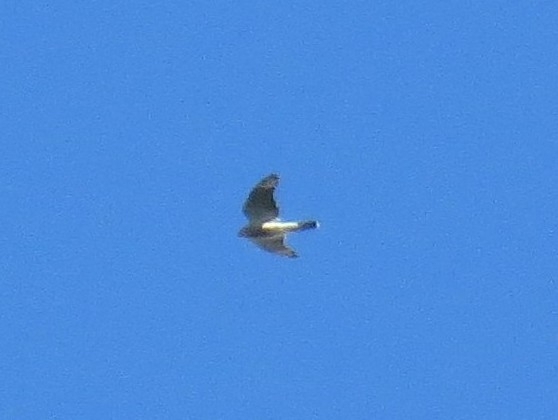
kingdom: Animalia
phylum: Chordata
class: Aves
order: Accipitriformes
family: Accipitridae
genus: Accipiter
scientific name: Accipiter nisus
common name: Eurasian sparrowhawk
